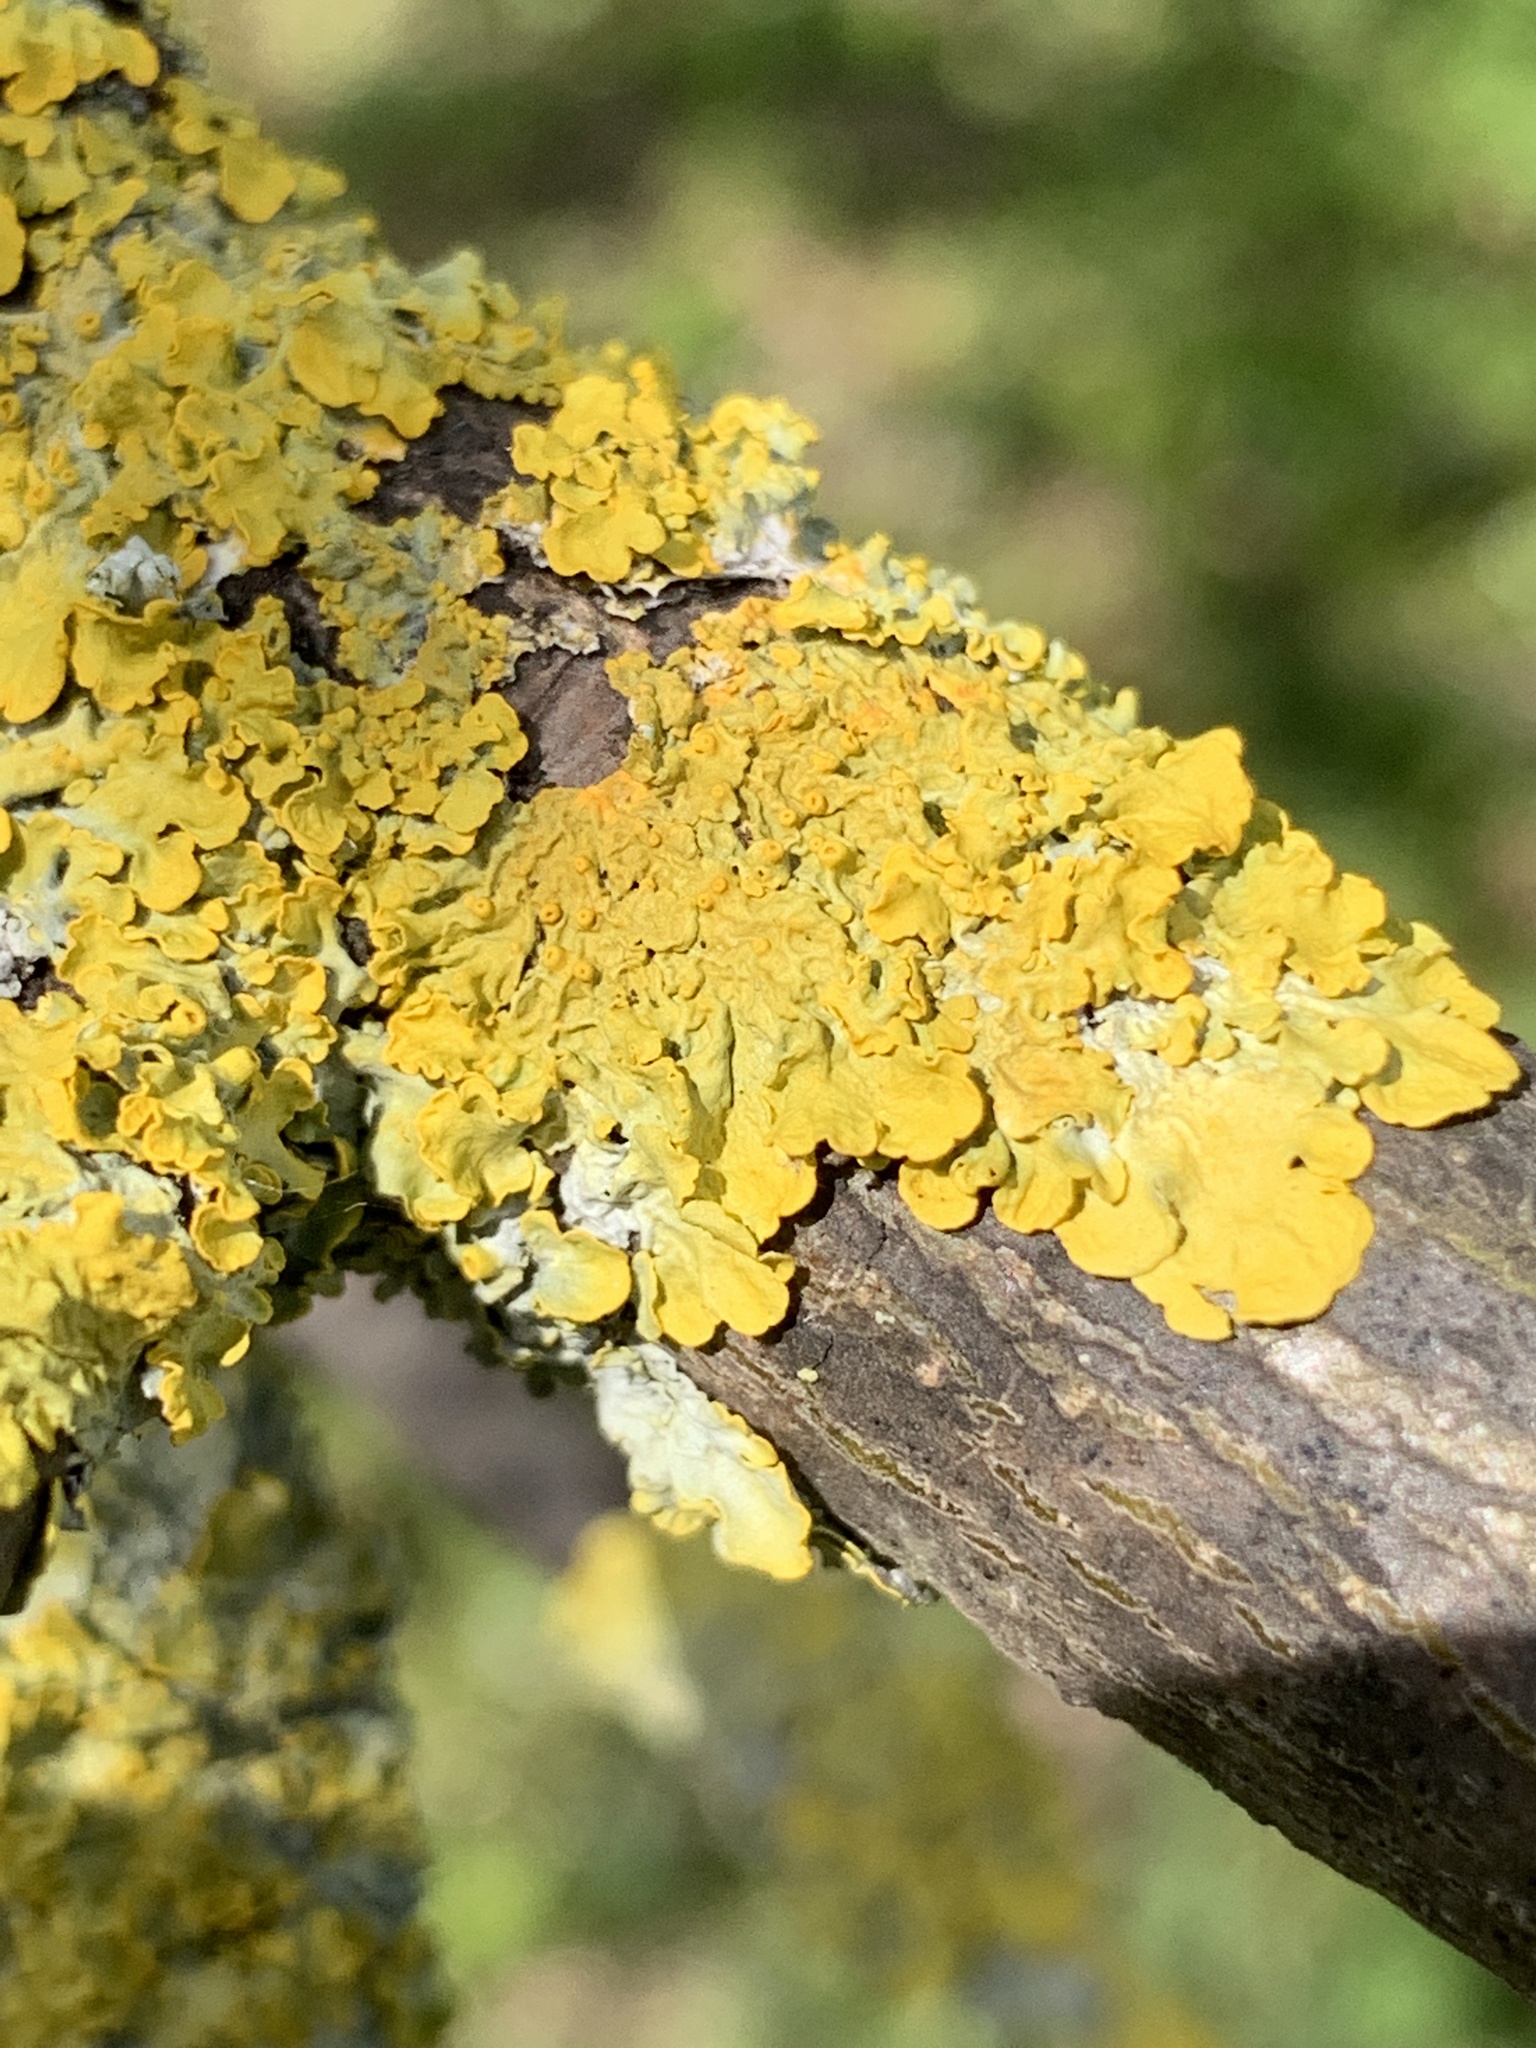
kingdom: Fungi
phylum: Ascomycota
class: Lecanoromycetes
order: Teloschistales
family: Teloschistaceae
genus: Xanthoria
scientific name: Xanthoria parietina
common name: Common orange lichen
